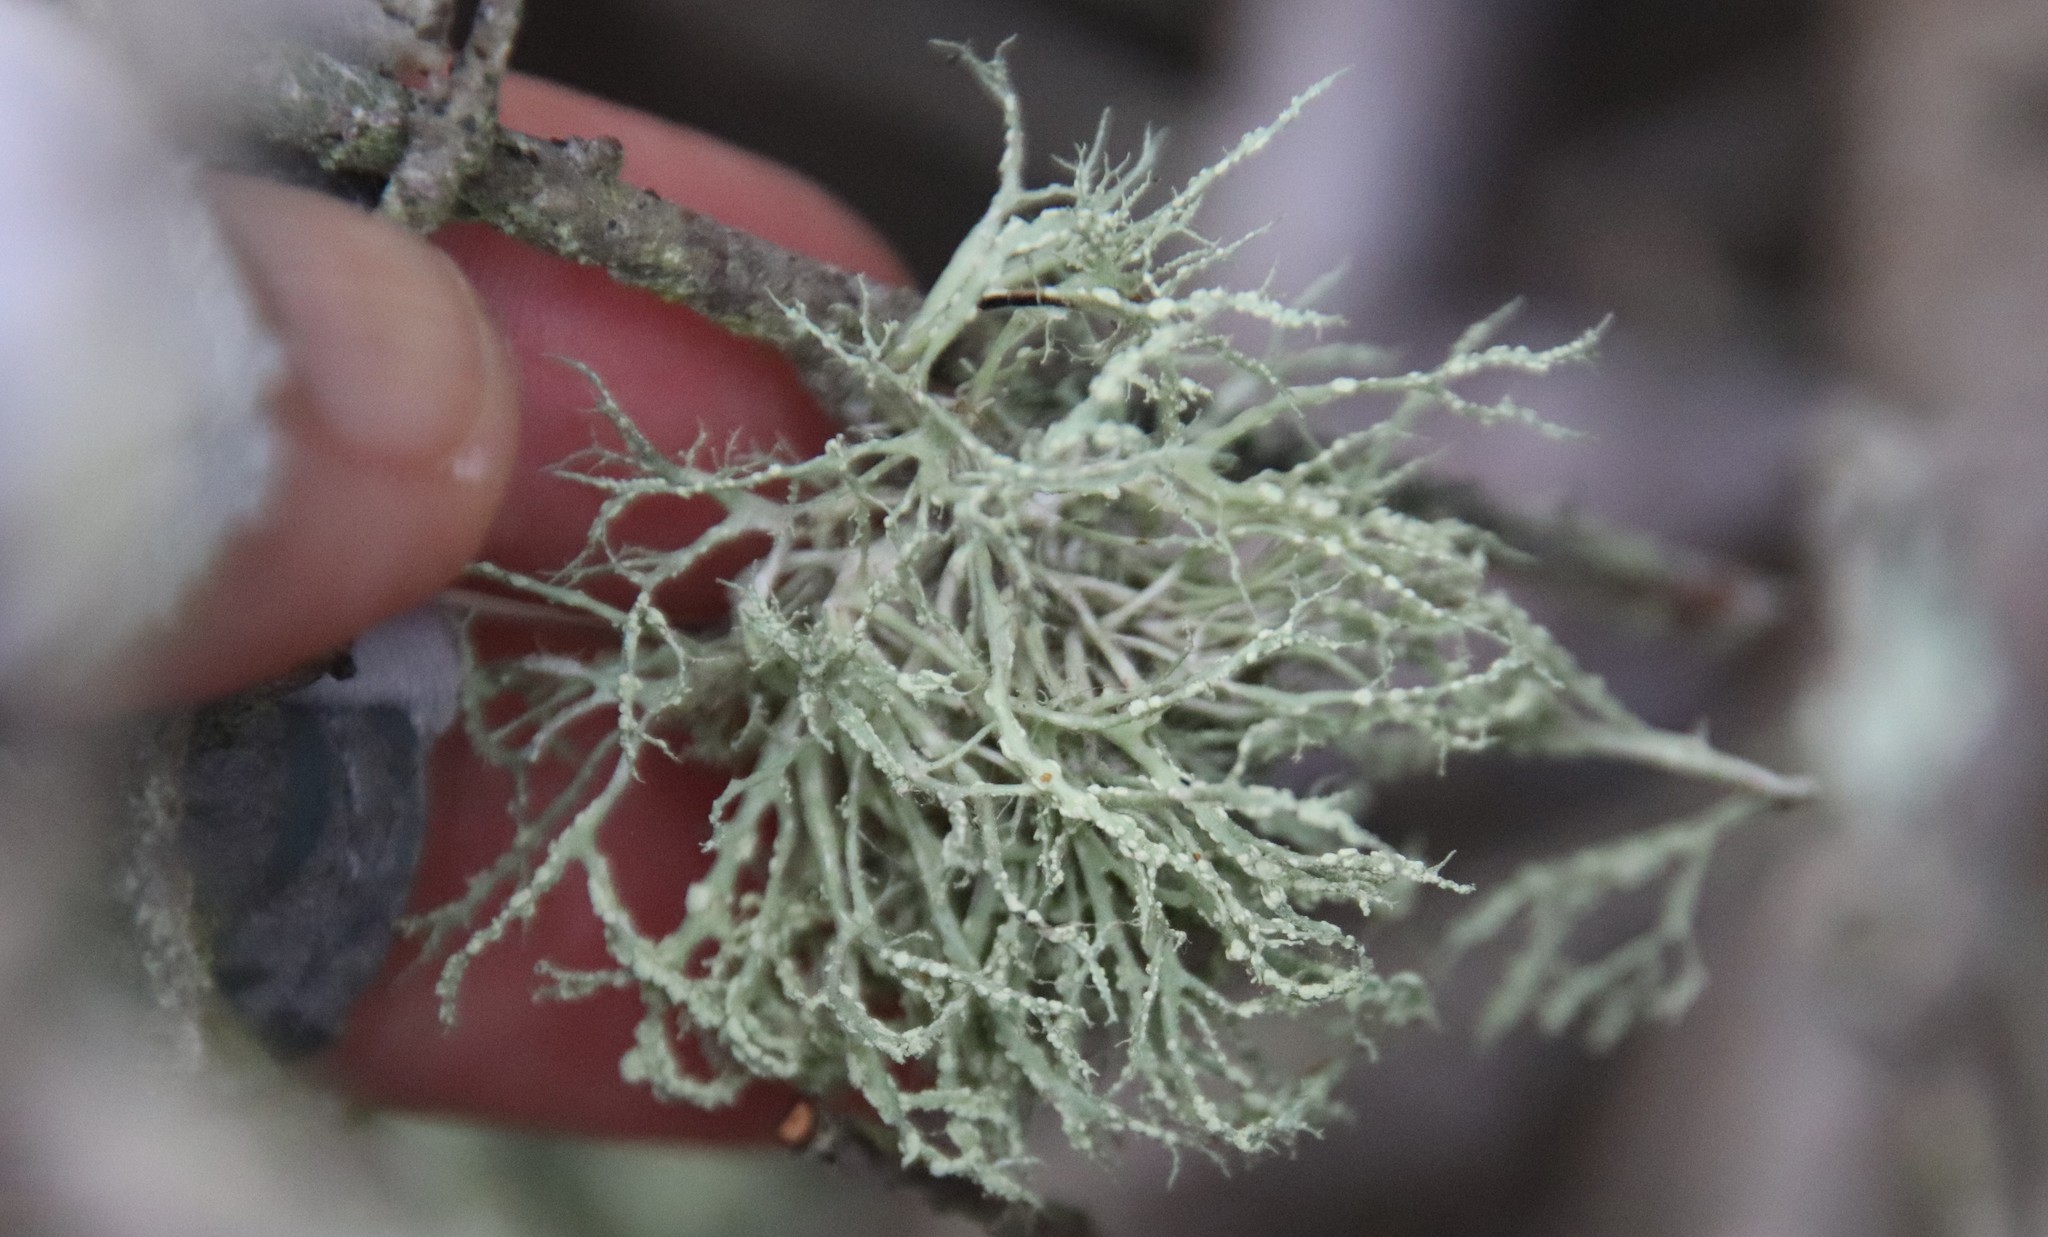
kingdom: Fungi
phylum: Ascomycota
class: Lecanoromycetes
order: Lecanorales
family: Ramalinaceae
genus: Ramalina
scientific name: Ramalina farinacea
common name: Farinose cartilage lichen
